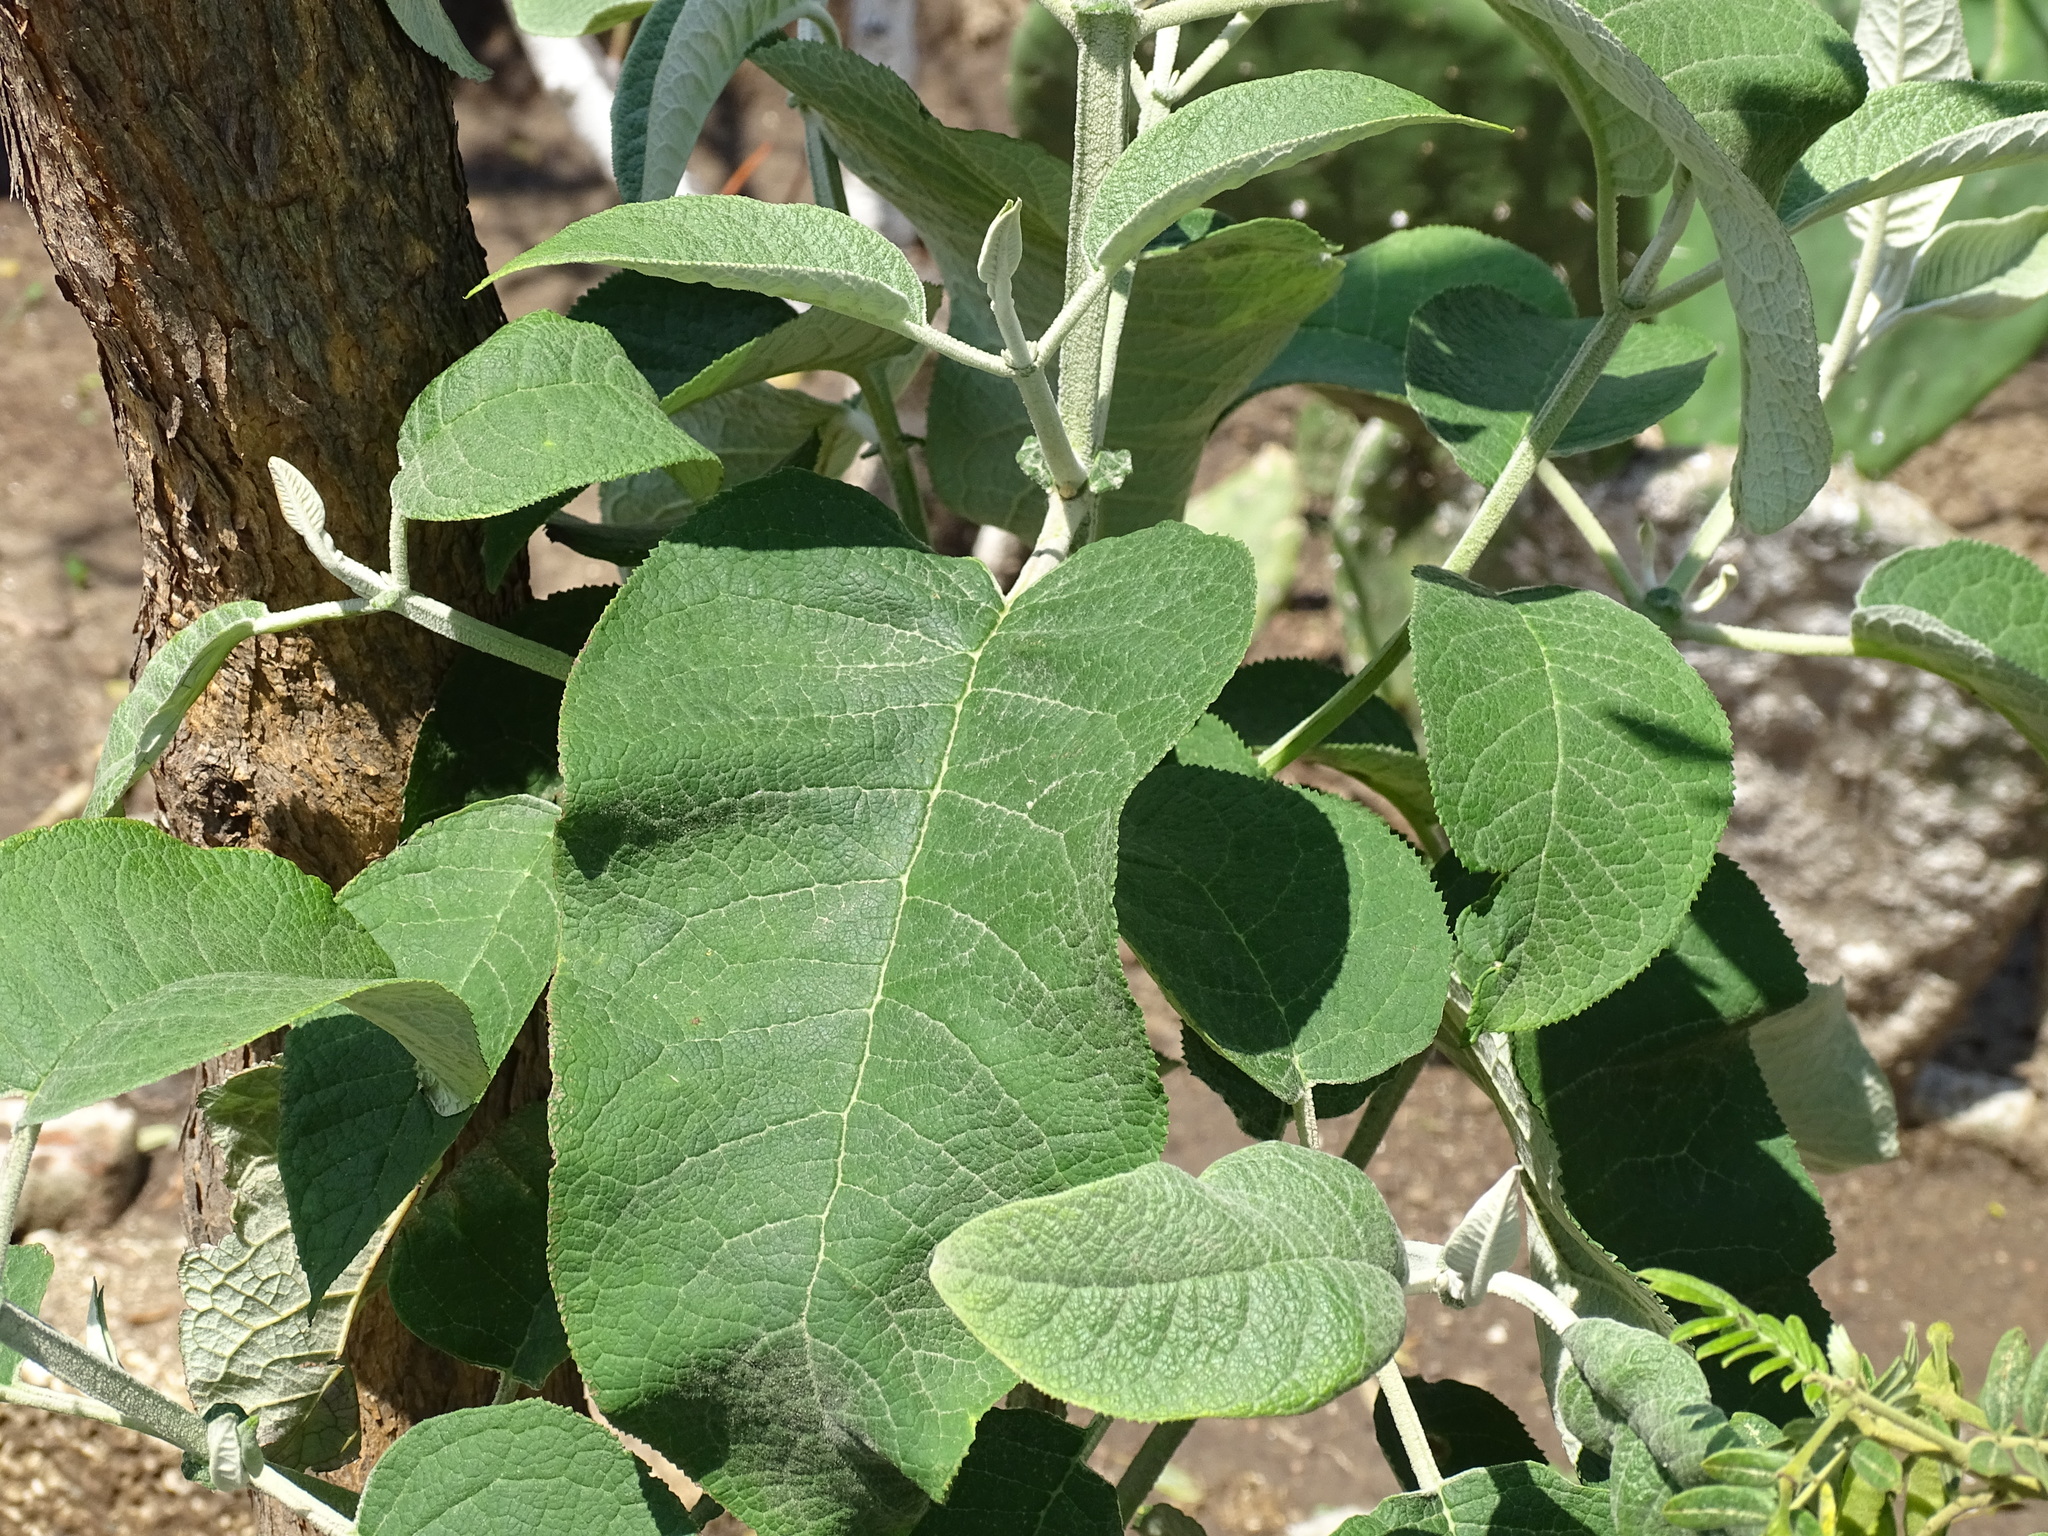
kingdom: Plantae
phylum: Tracheophyta
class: Magnoliopsida
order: Lamiales
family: Scrophulariaceae
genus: Buddleja
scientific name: Buddleja cordata
